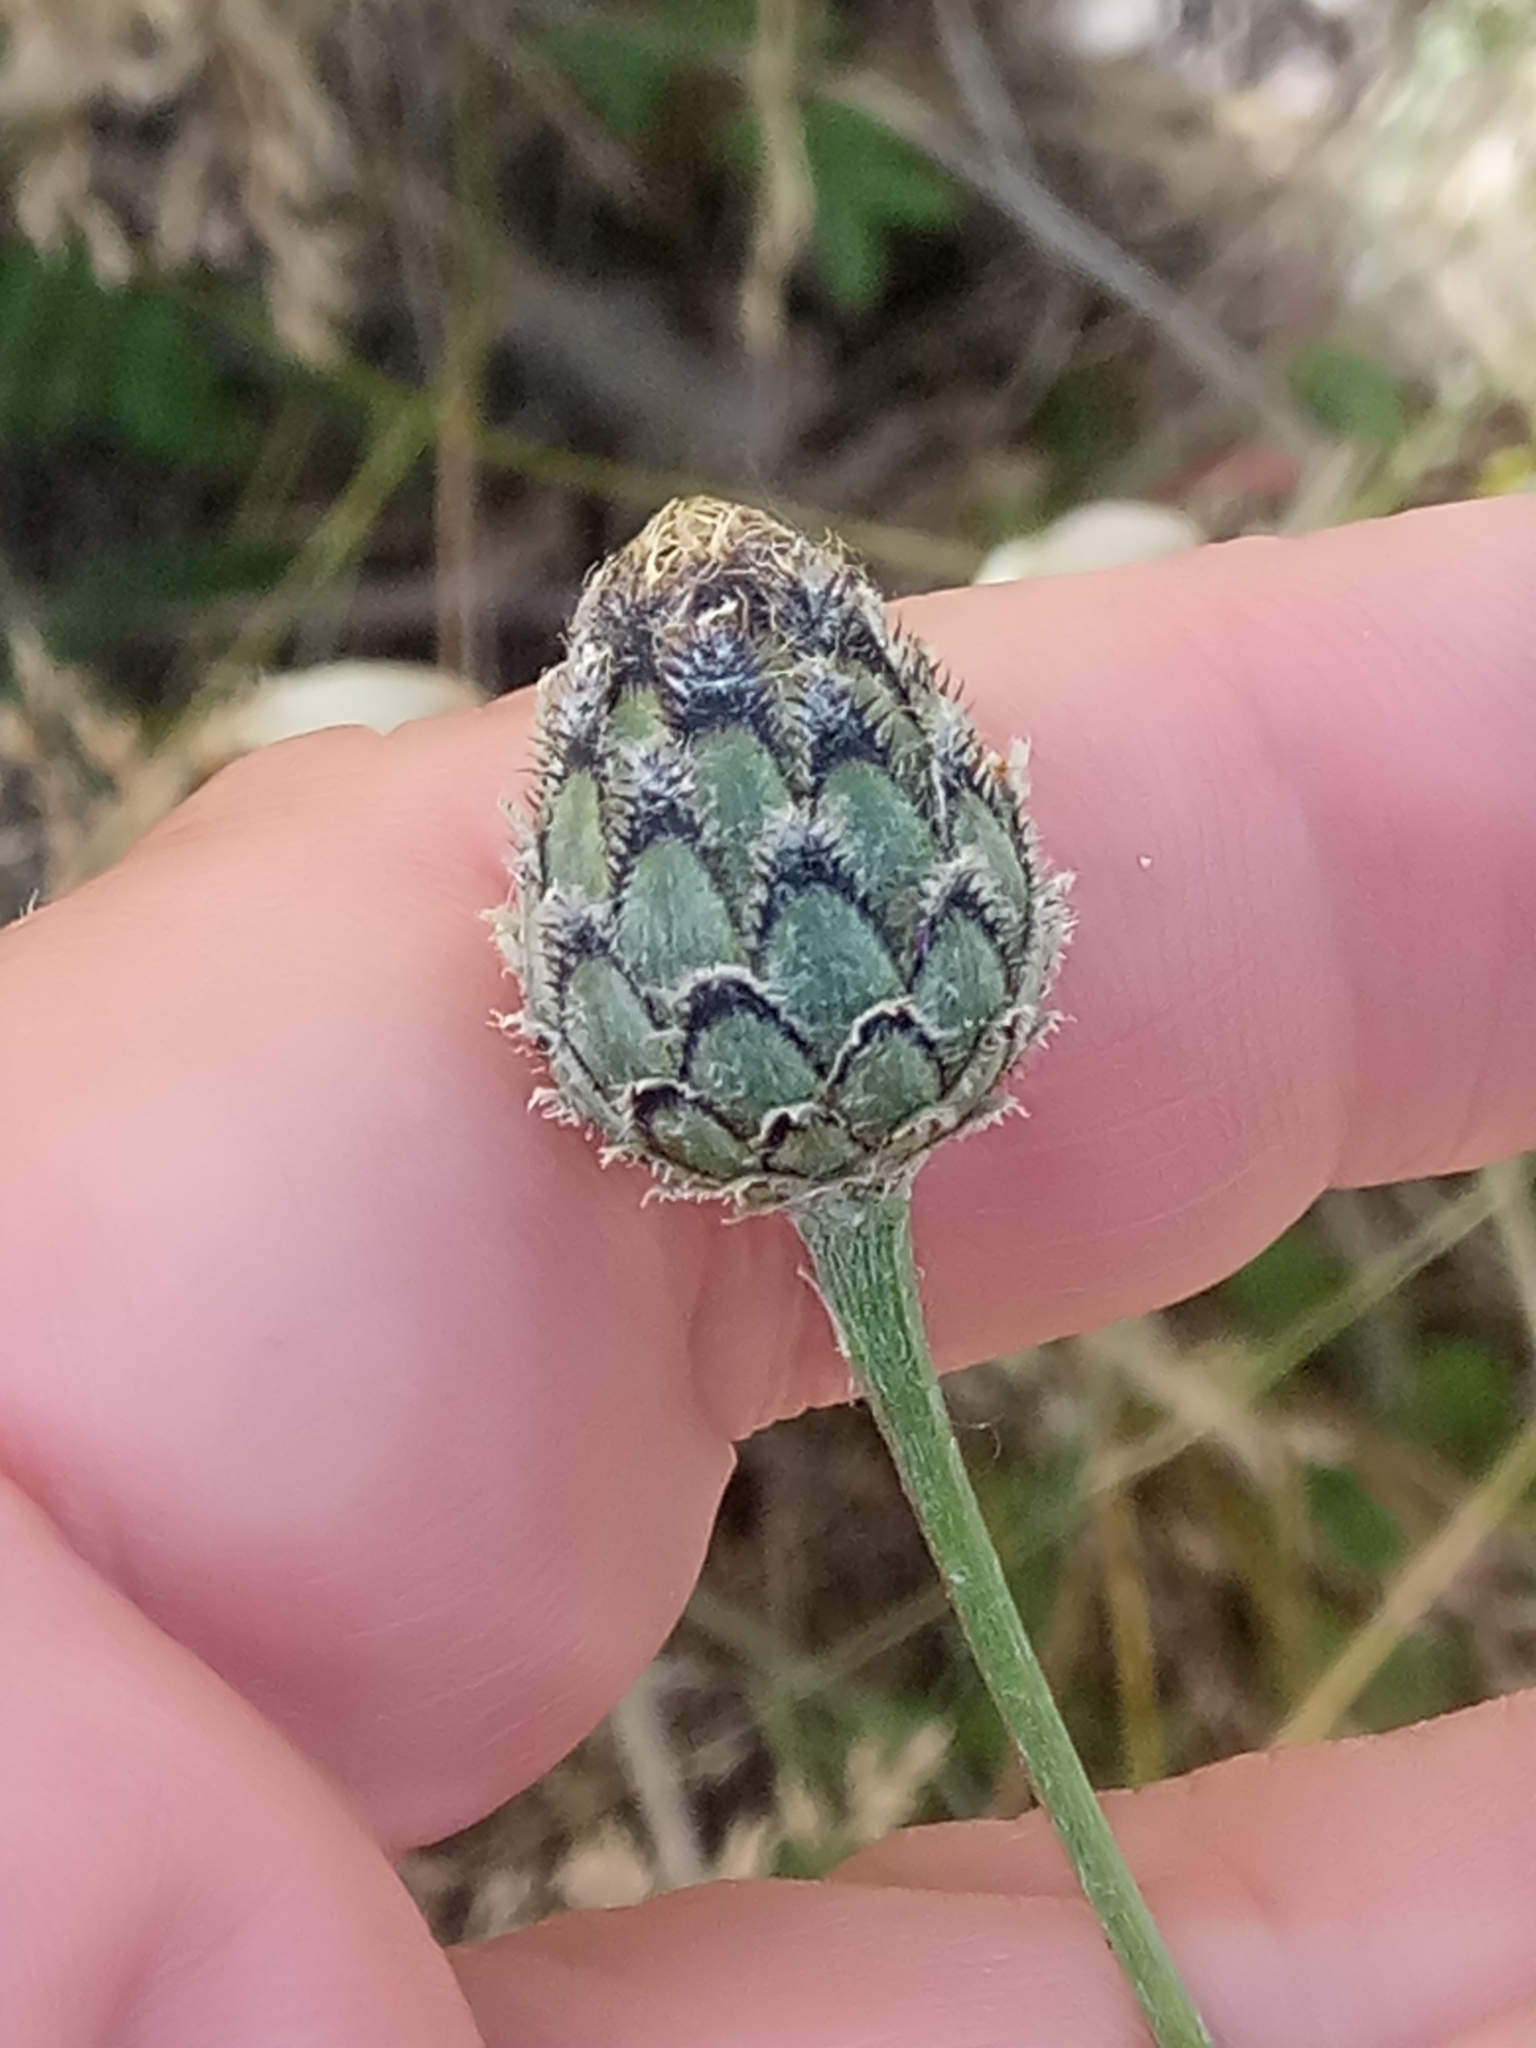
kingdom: Plantae
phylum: Tracheophyta
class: Magnoliopsida
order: Asterales
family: Asteraceae
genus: Centaurea
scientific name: Centaurea scabiosa
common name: Greater knapweed
